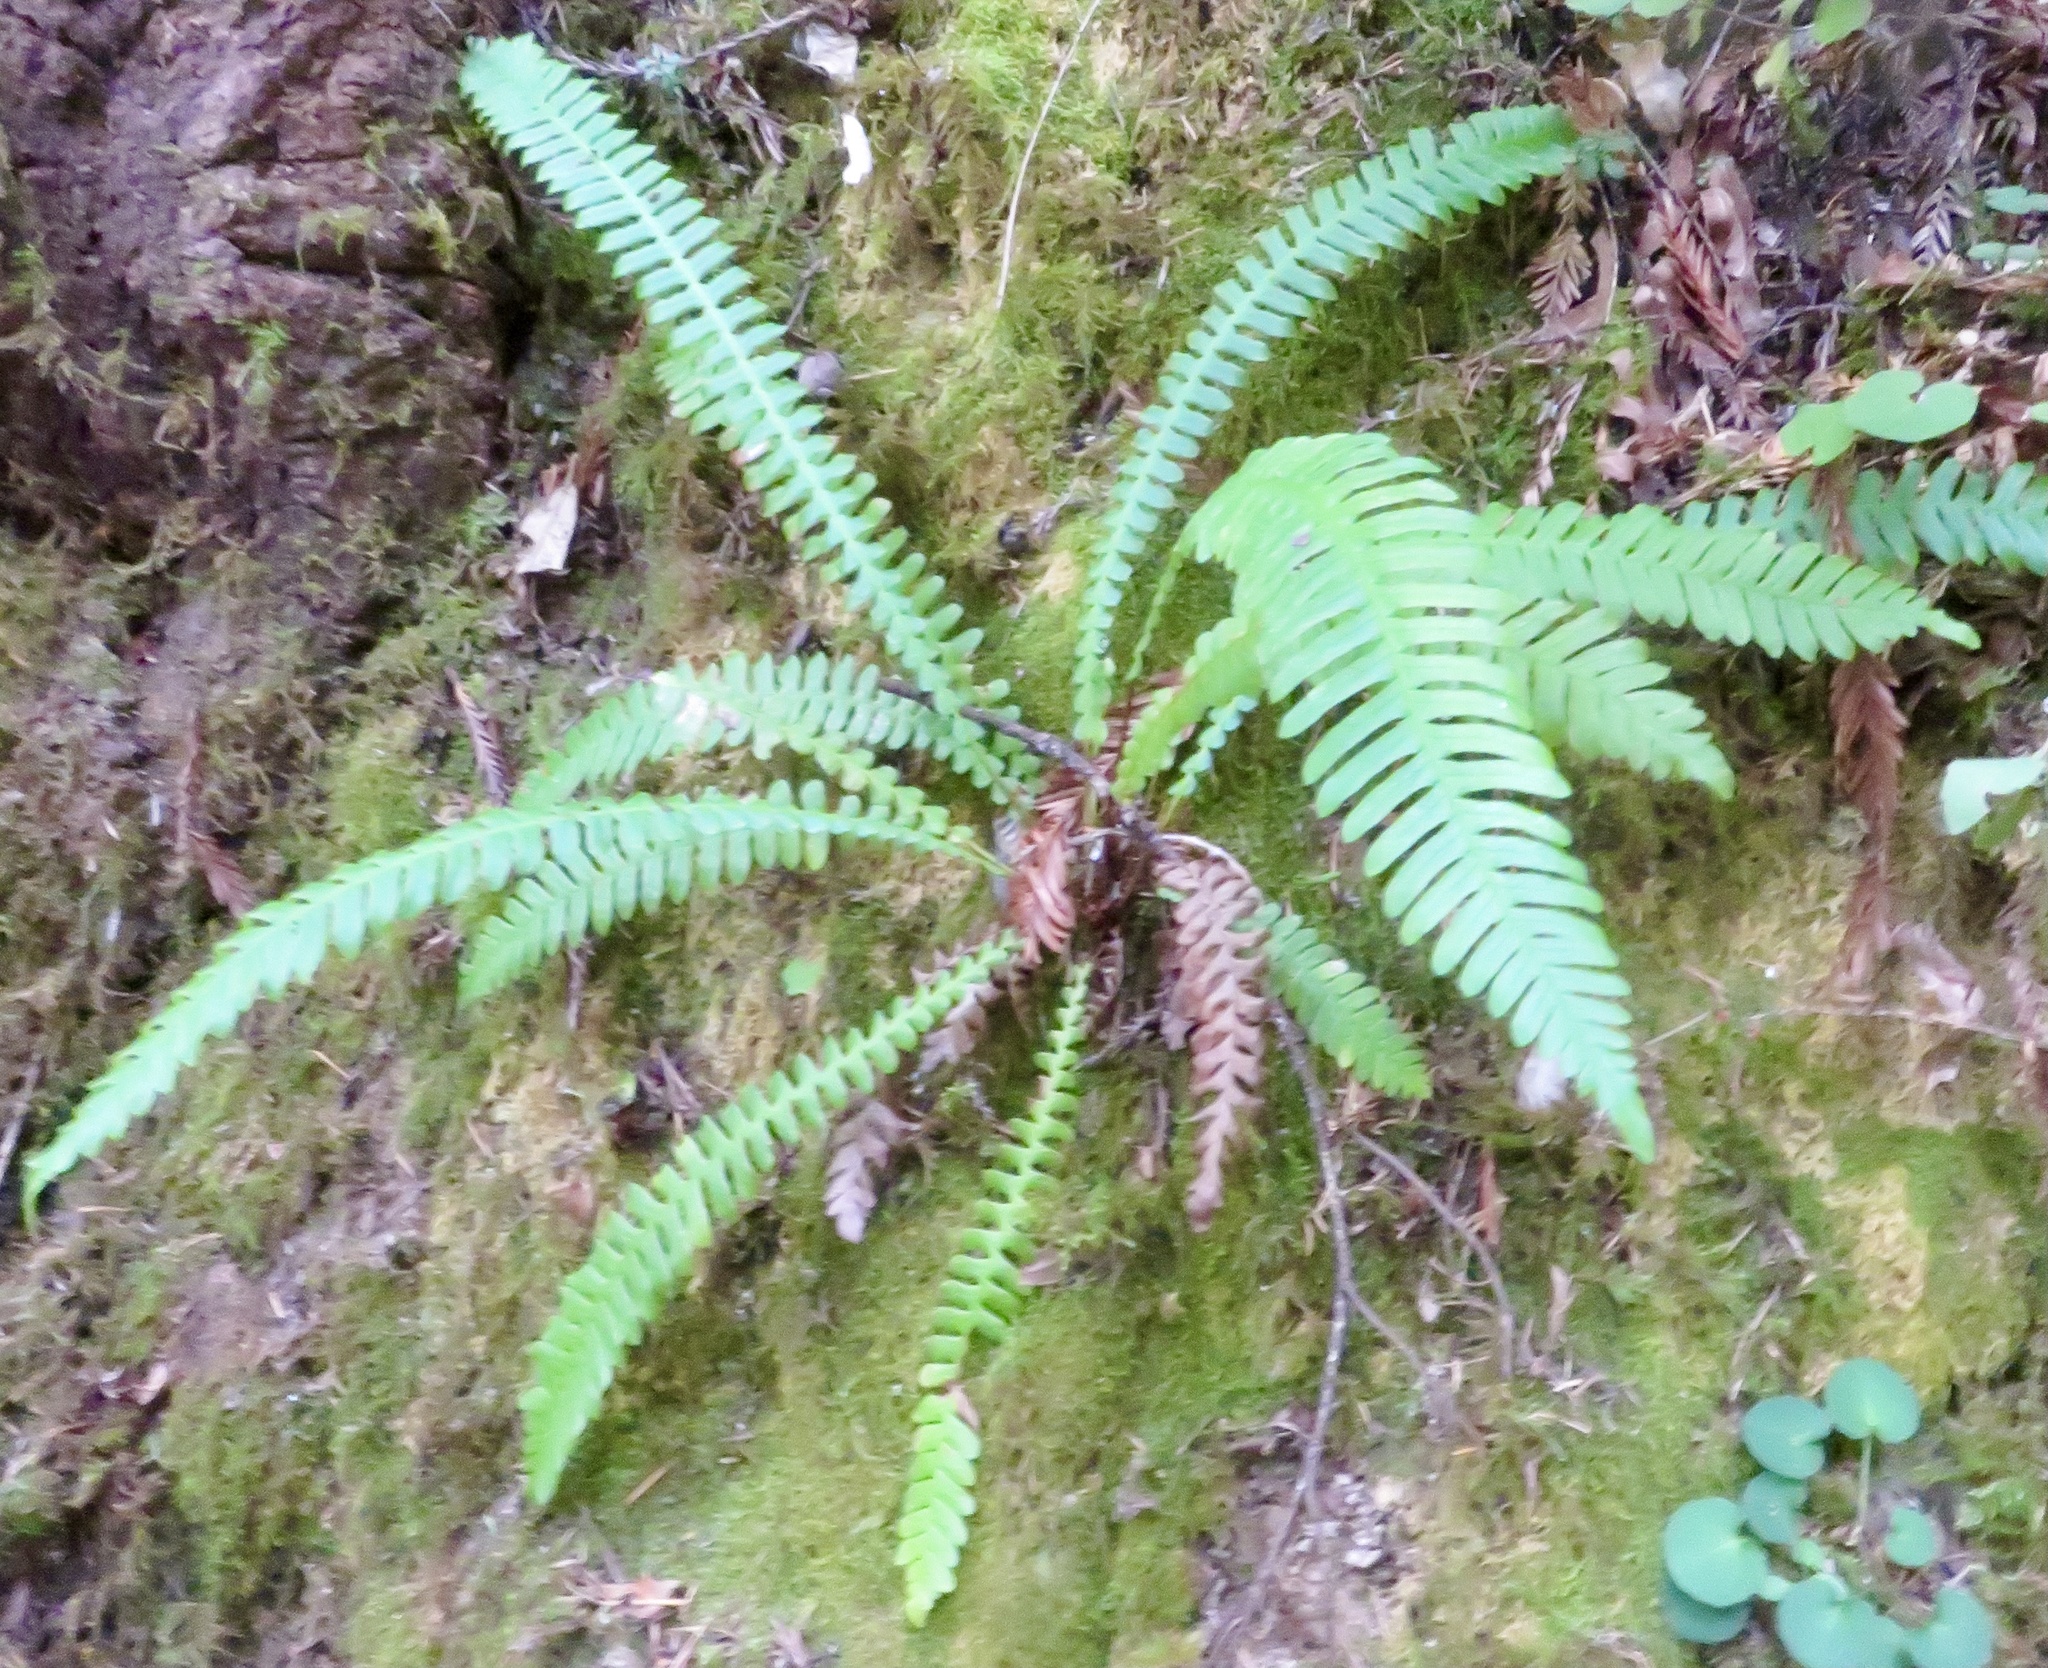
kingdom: Plantae
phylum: Tracheophyta
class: Polypodiopsida
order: Polypodiales
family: Blechnaceae
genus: Struthiopteris
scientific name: Struthiopteris spicant
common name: Deer fern
